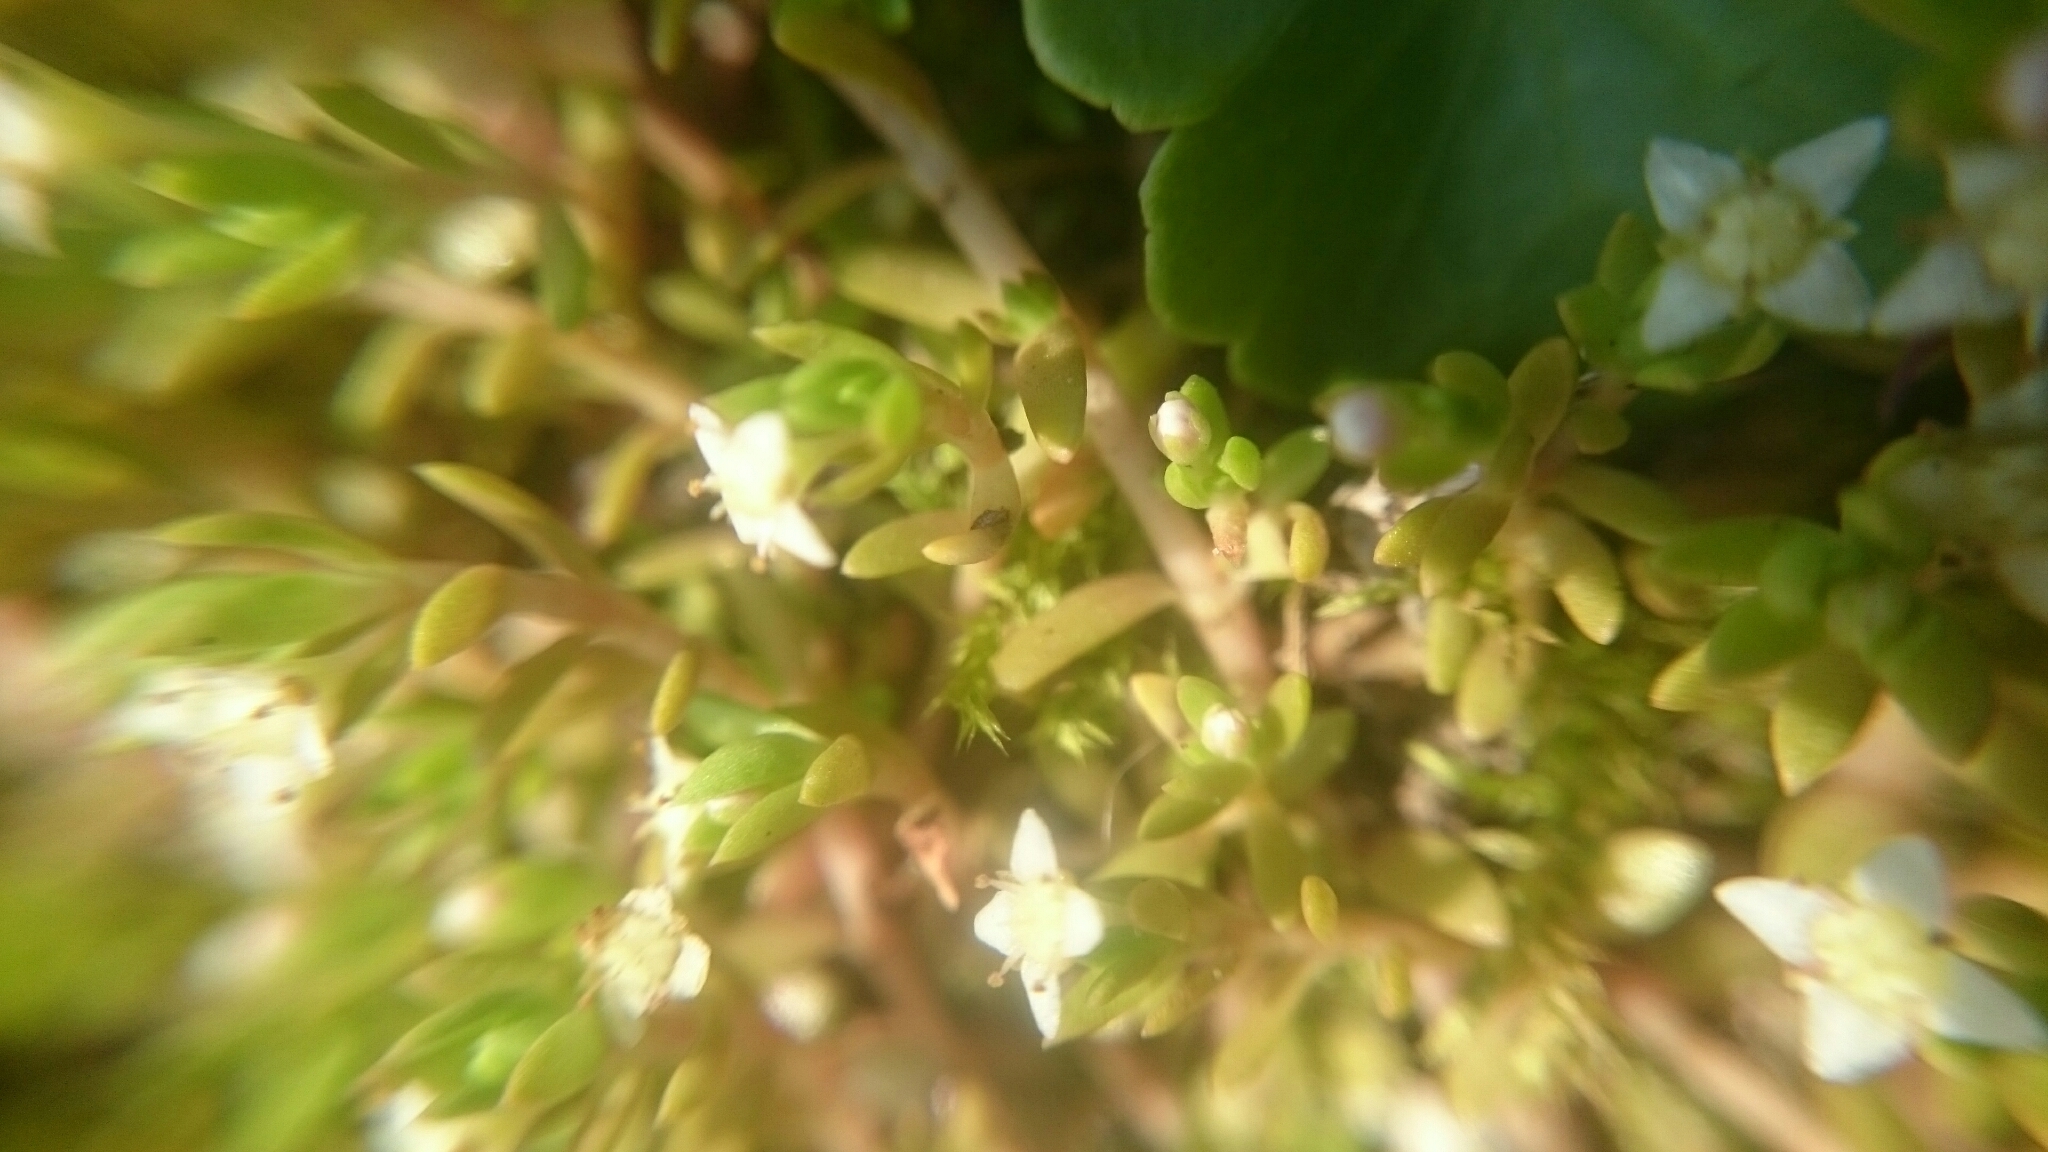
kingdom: Plantae
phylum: Tracheophyta
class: Magnoliopsida
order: Saxifragales
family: Crassulaceae
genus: Crassula
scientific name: Crassula helmsii
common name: New zealand pigmyweed
